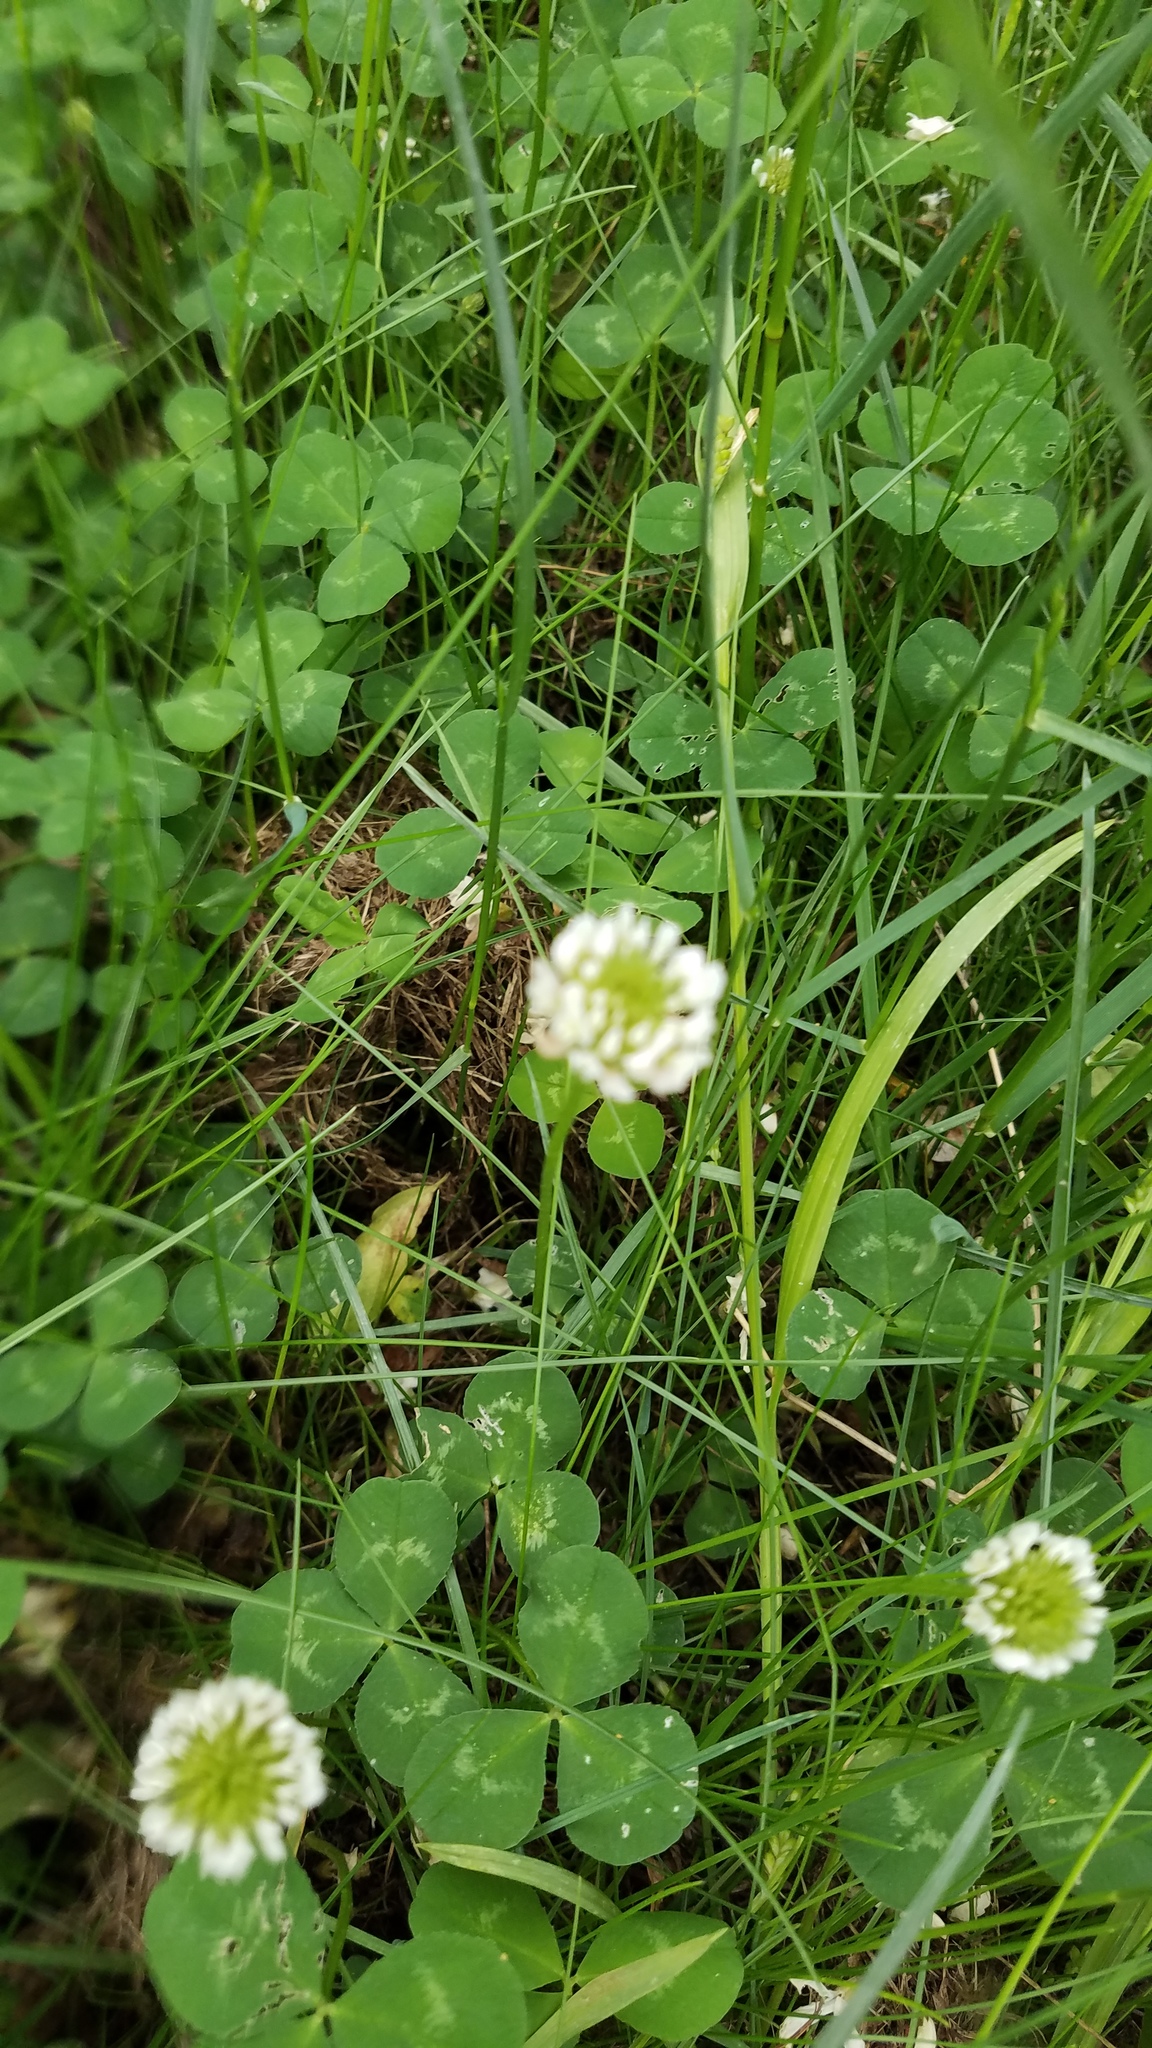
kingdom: Plantae
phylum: Tracheophyta
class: Magnoliopsida
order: Fabales
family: Fabaceae
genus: Trifolium
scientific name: Trifolium repens
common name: White clover
